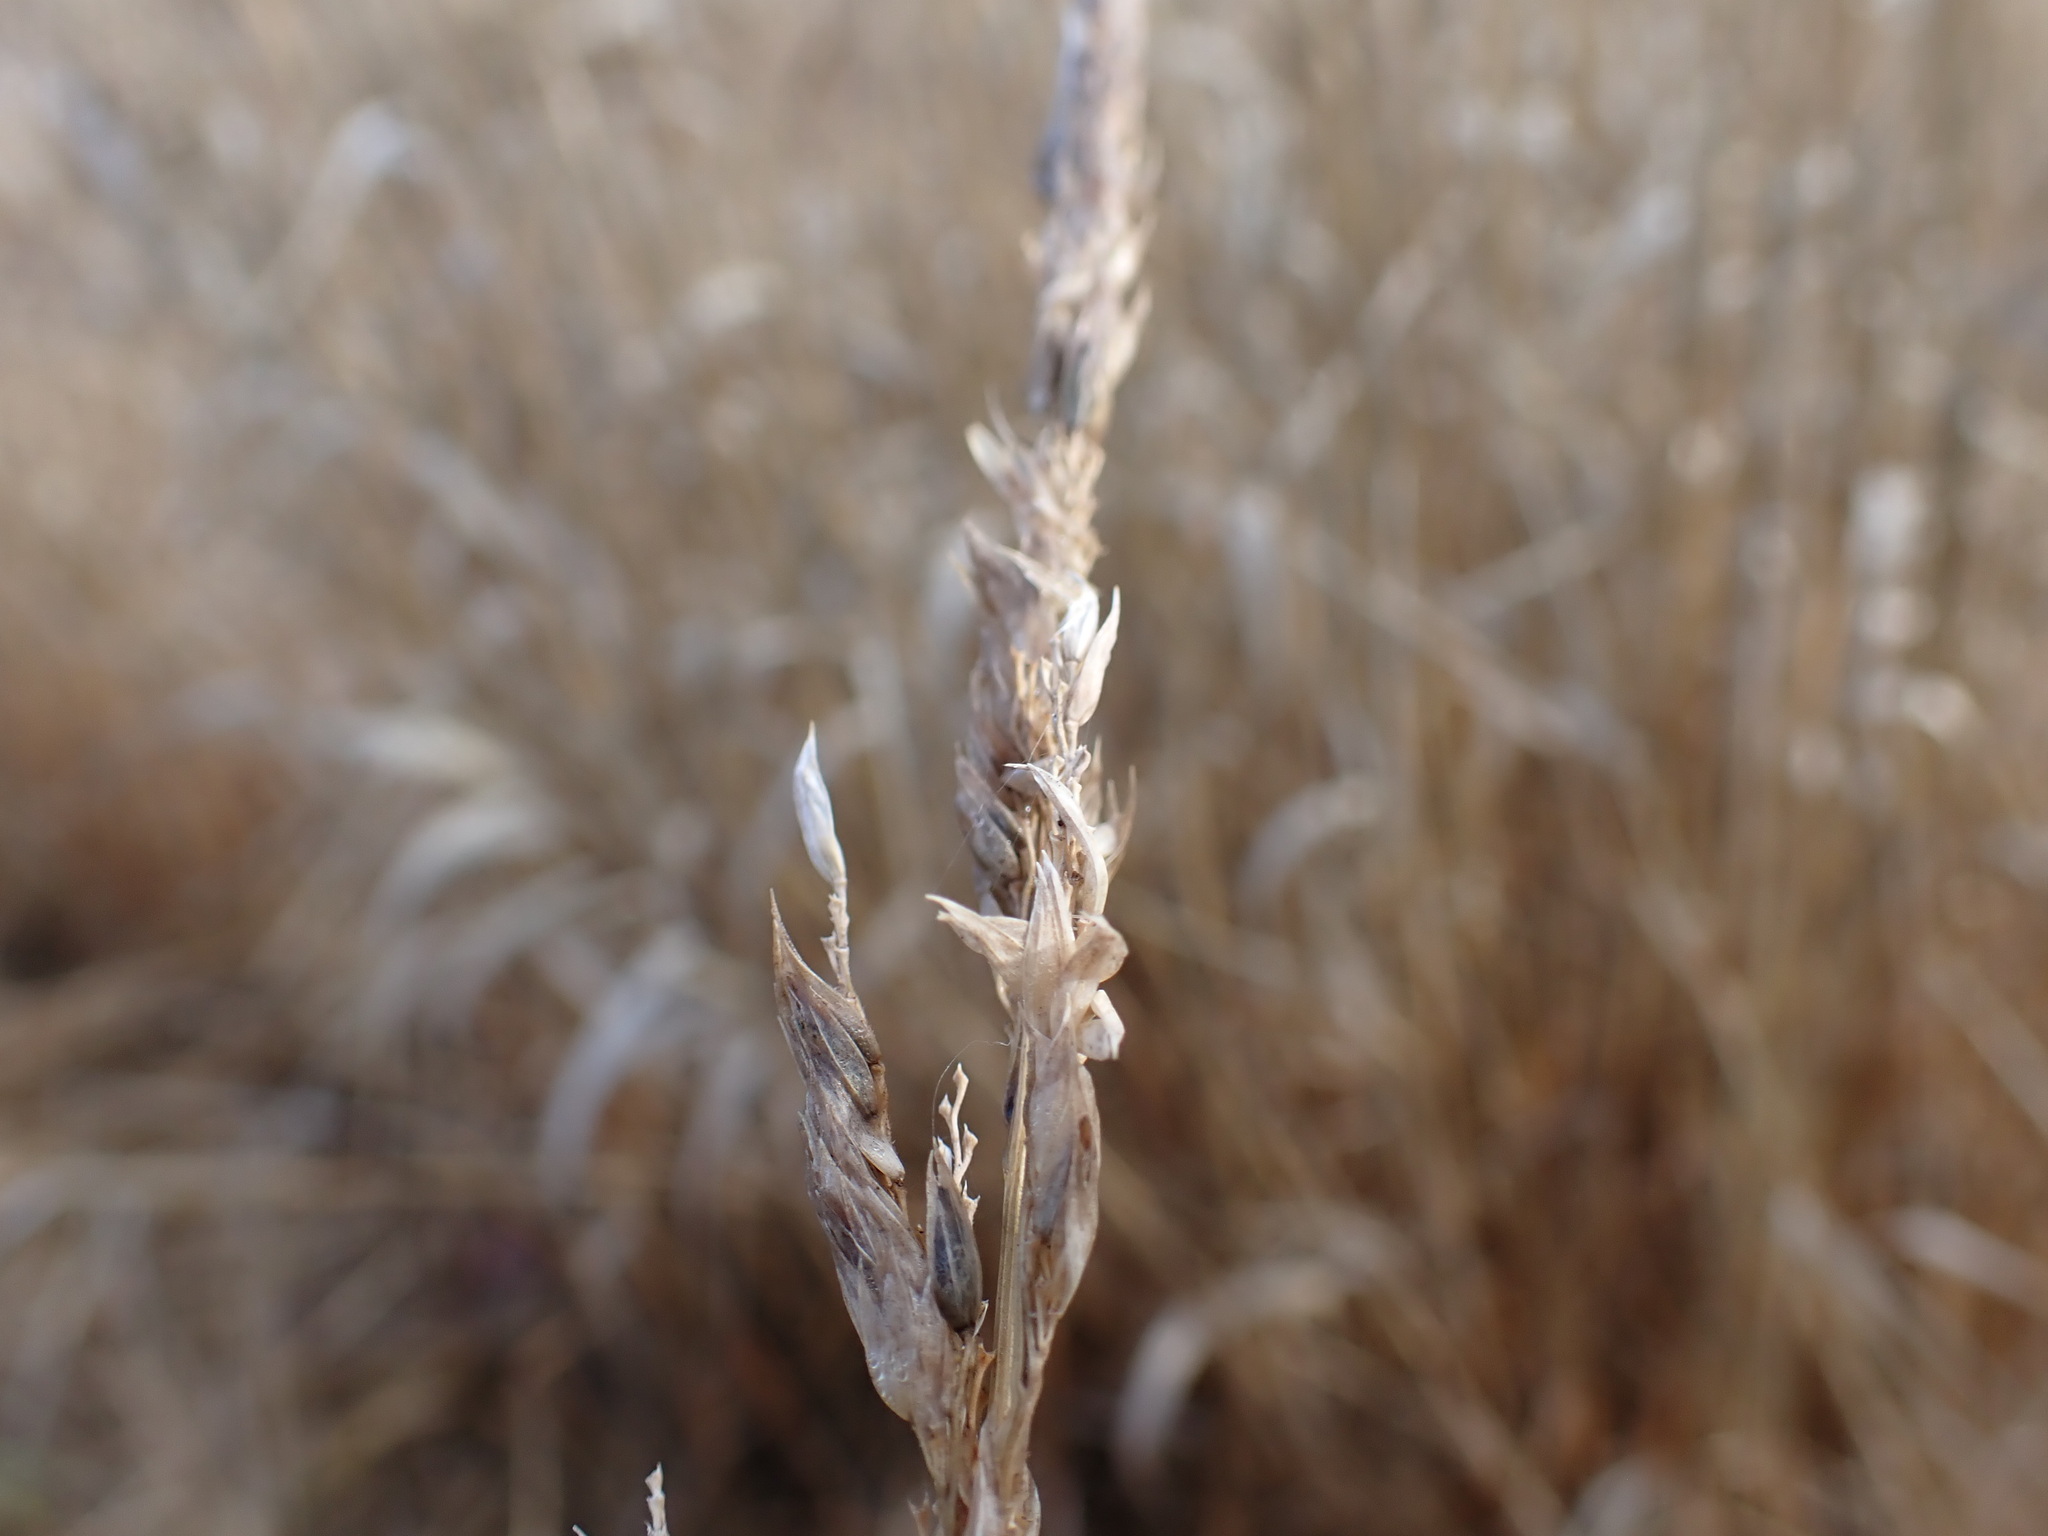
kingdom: Plantae
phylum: Tracheophyta
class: Liliopsida
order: Poales
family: Poaceae
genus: Phalaris
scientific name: Phalaris arundinacea
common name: Reed canary-grass
